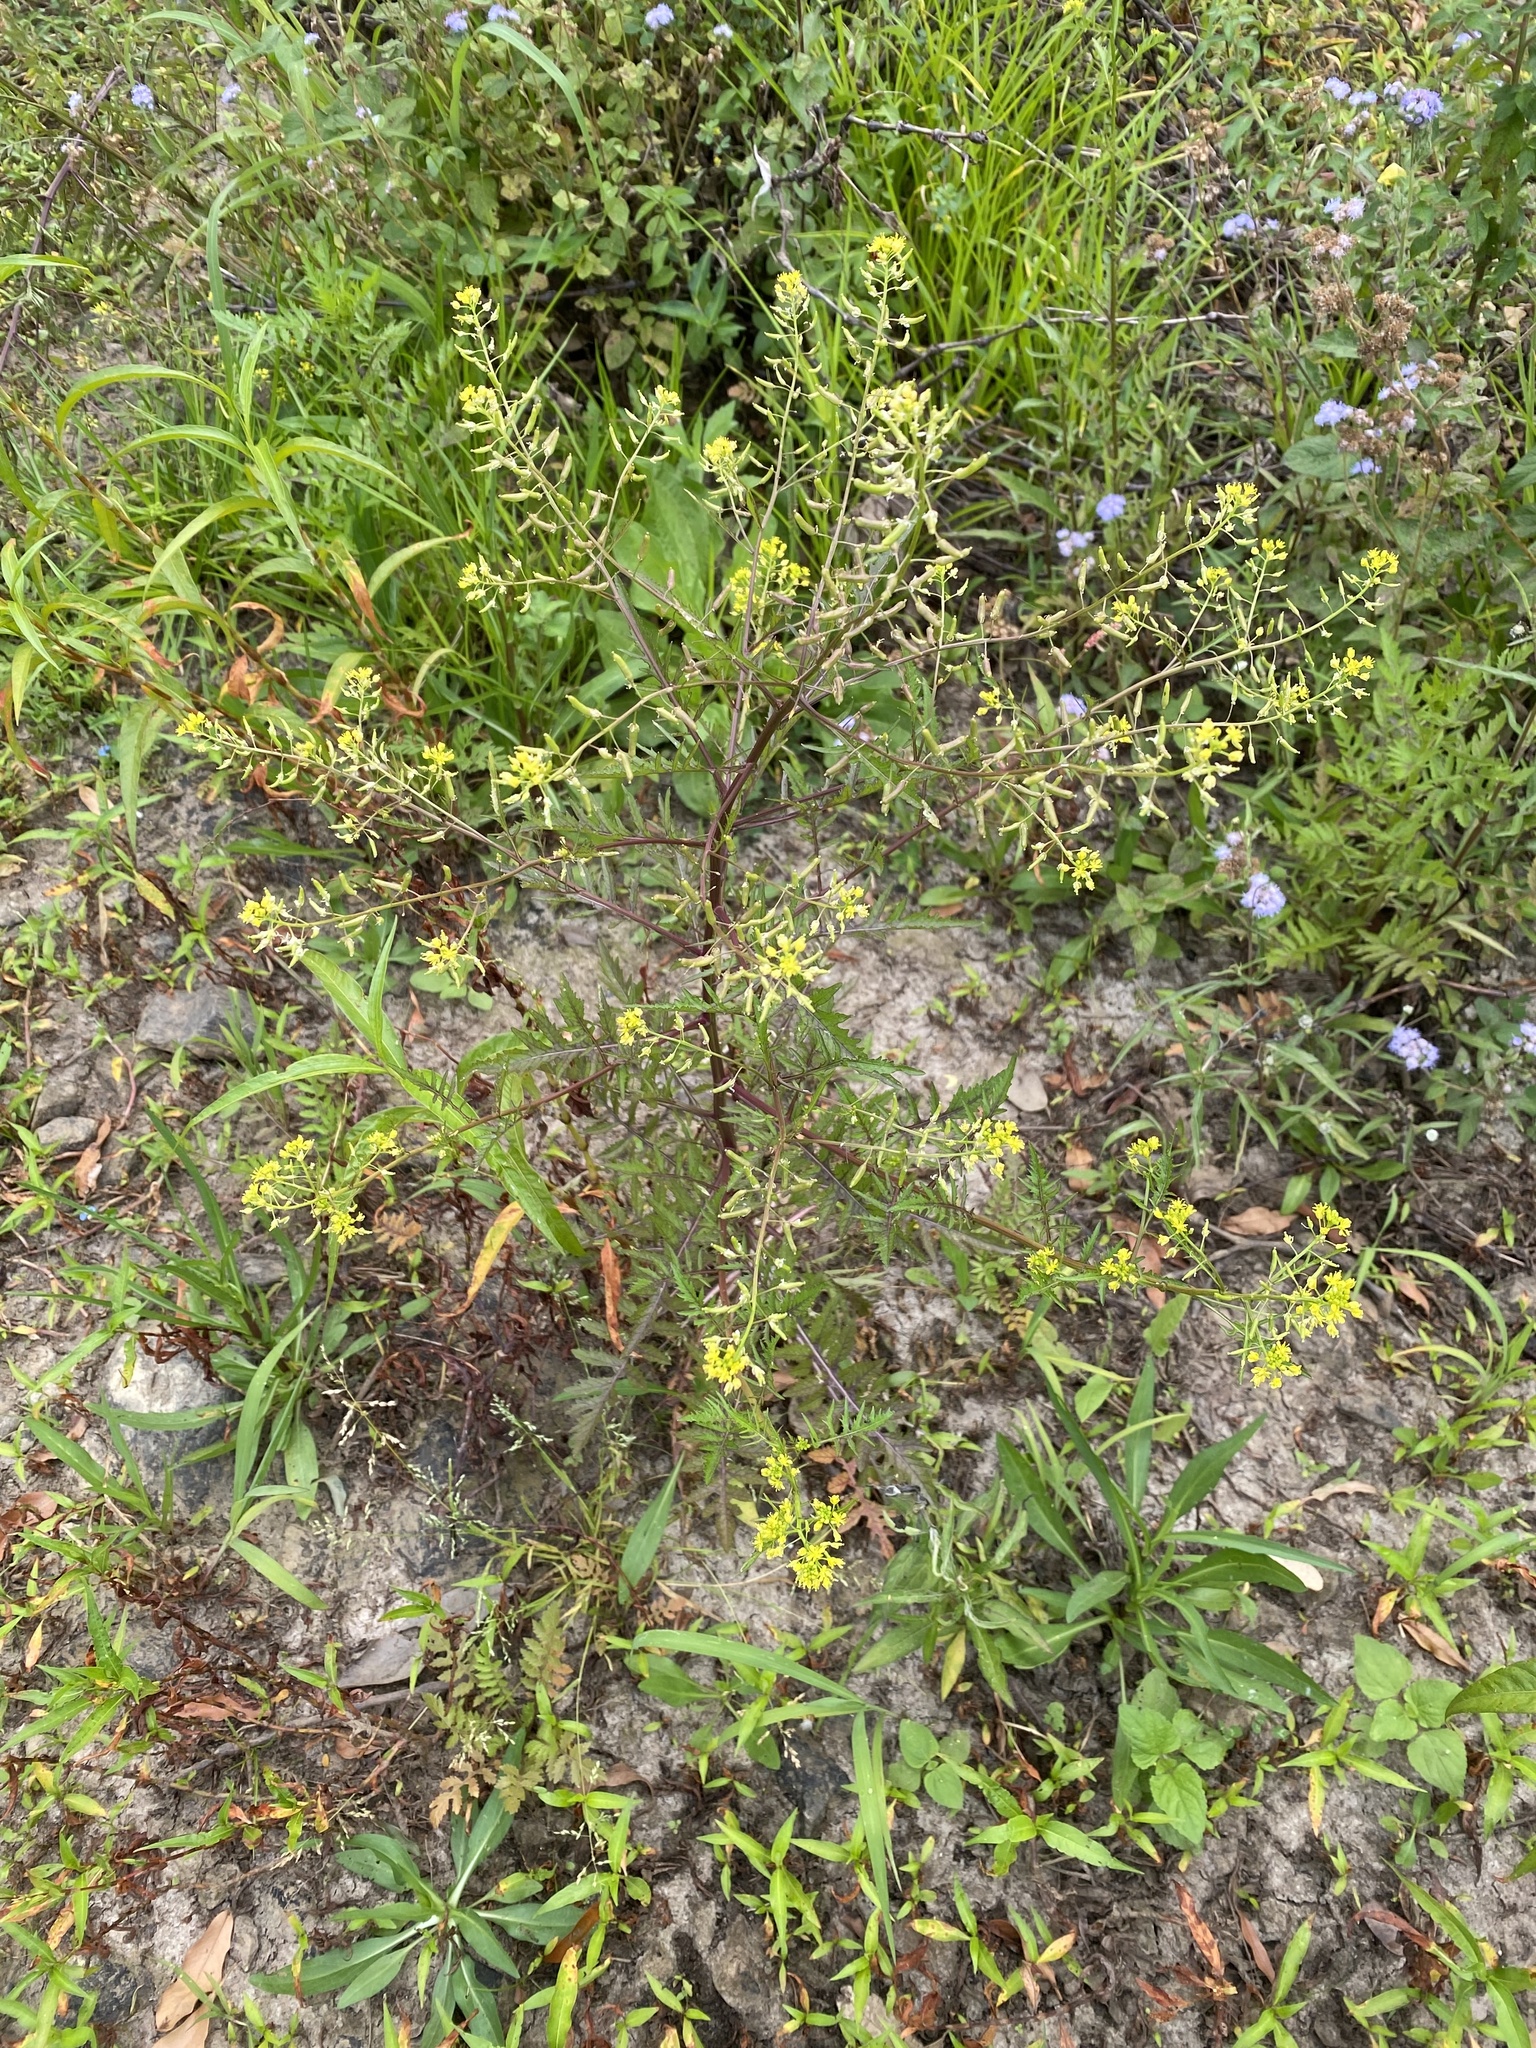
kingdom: Plantae
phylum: Tracheophyta
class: Magnoliopsida
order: Brassicales
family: Brassicaceae
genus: Rorippa
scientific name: Rorippa palustris
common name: Marsh yellow-cress
